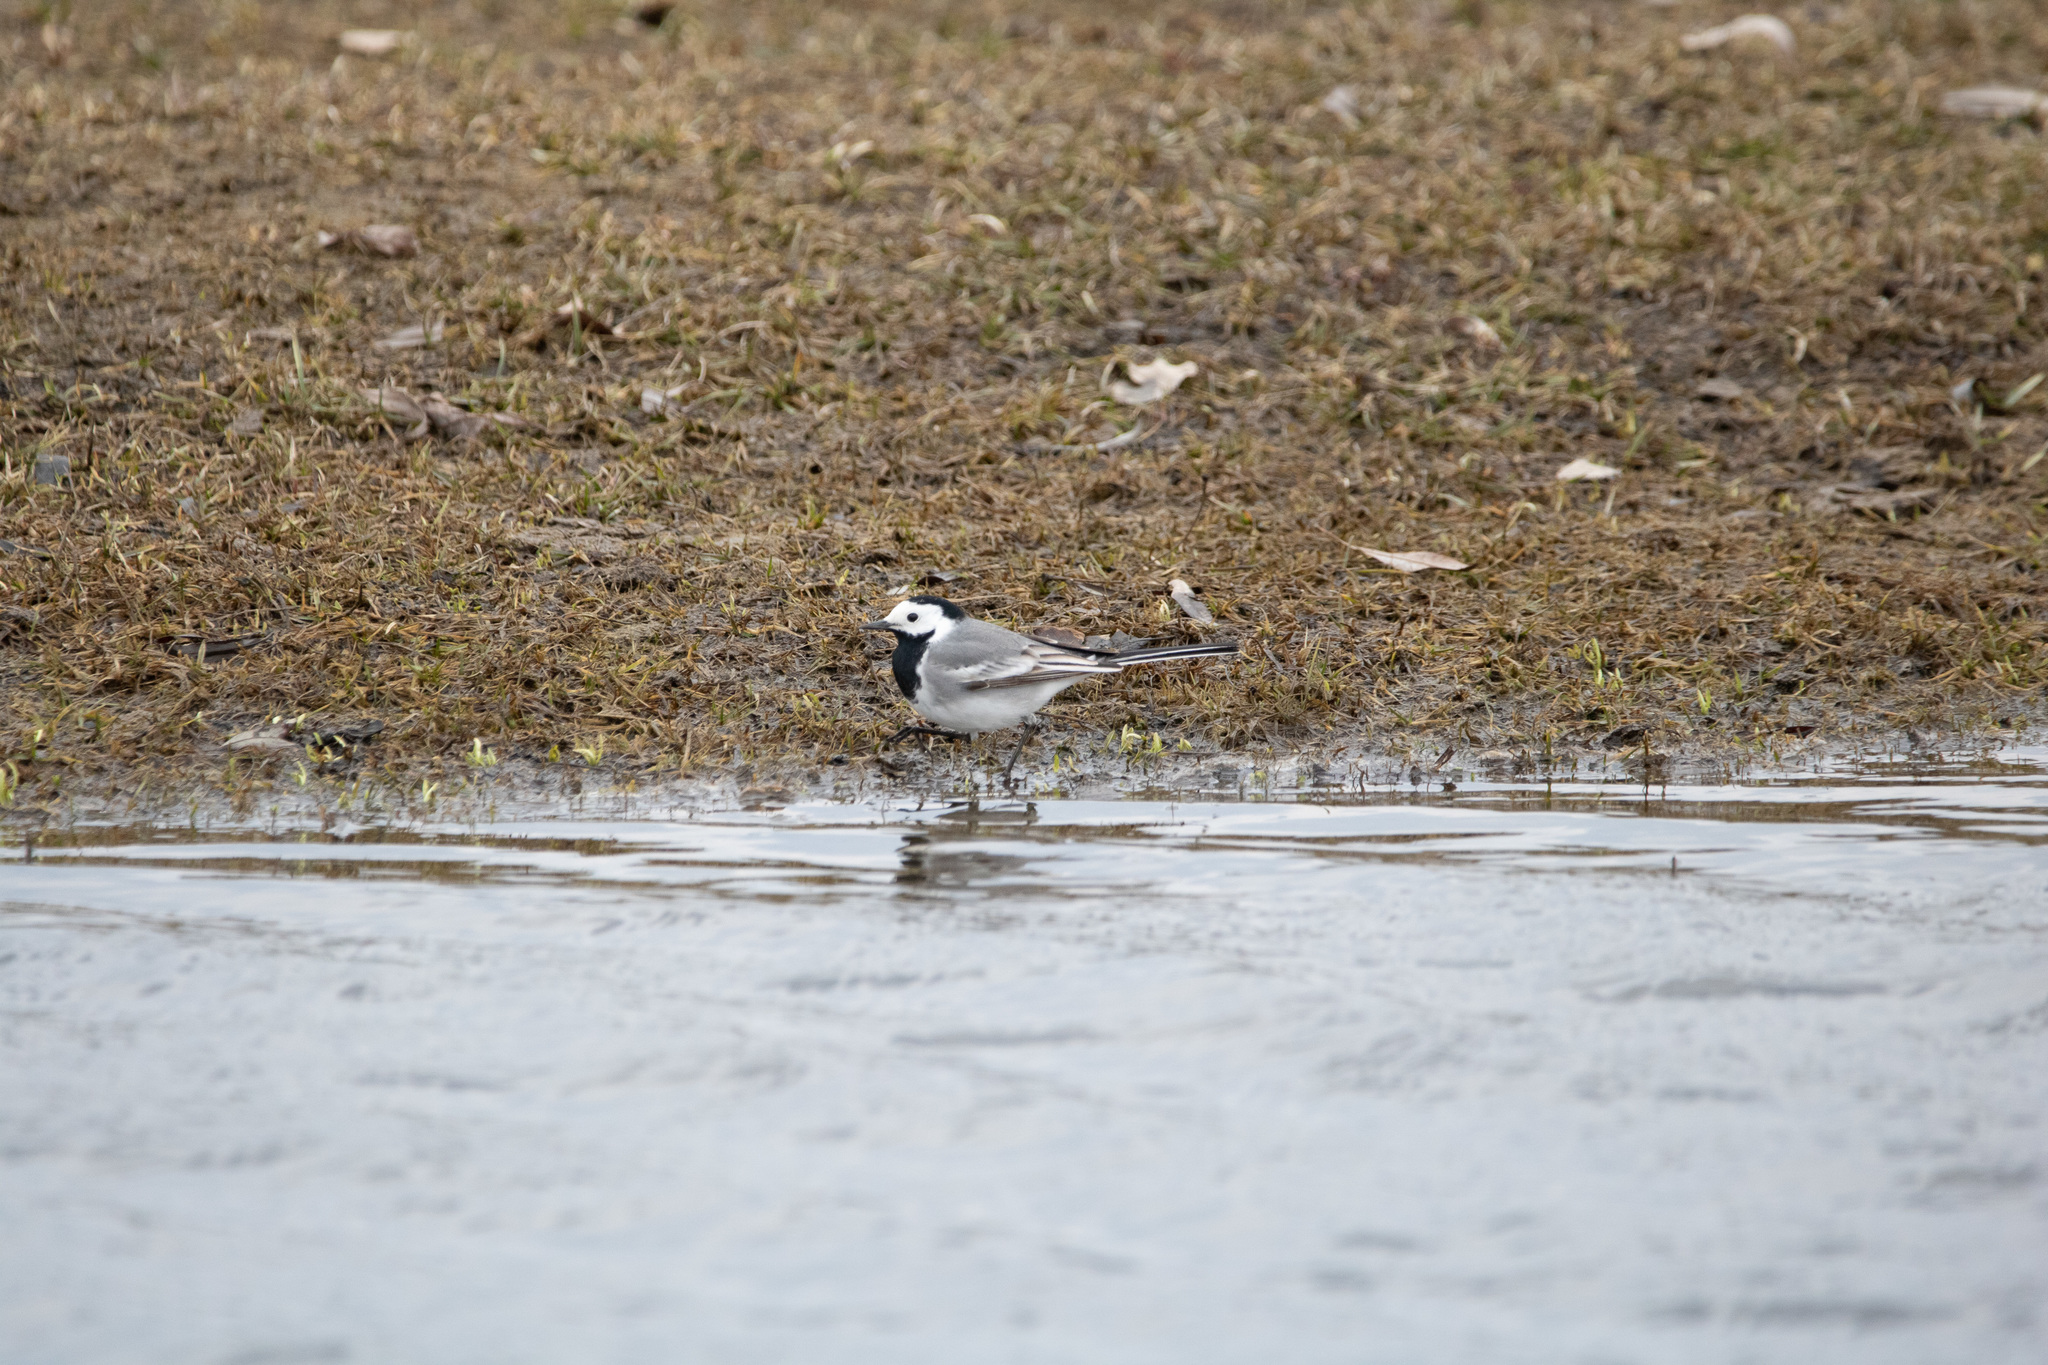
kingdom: Animalia
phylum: Chordata
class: Aves
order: Passeriformes
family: Motacillidae
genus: Motacilla
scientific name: Motacilla alba
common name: White wagtail
